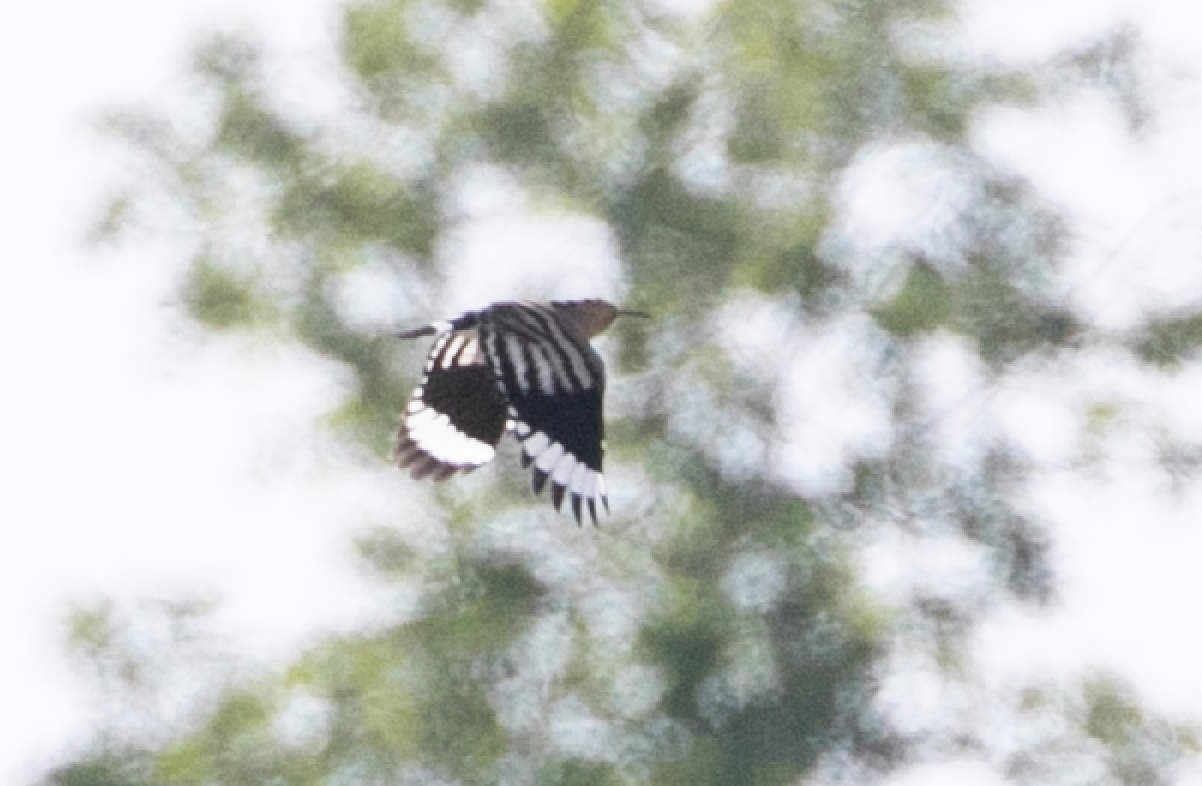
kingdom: Animalia
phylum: Chordata
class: Aves
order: Bucerotiformes
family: Upupidae
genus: Upupa
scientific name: Upupa epops
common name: Eurasian hoopoe
